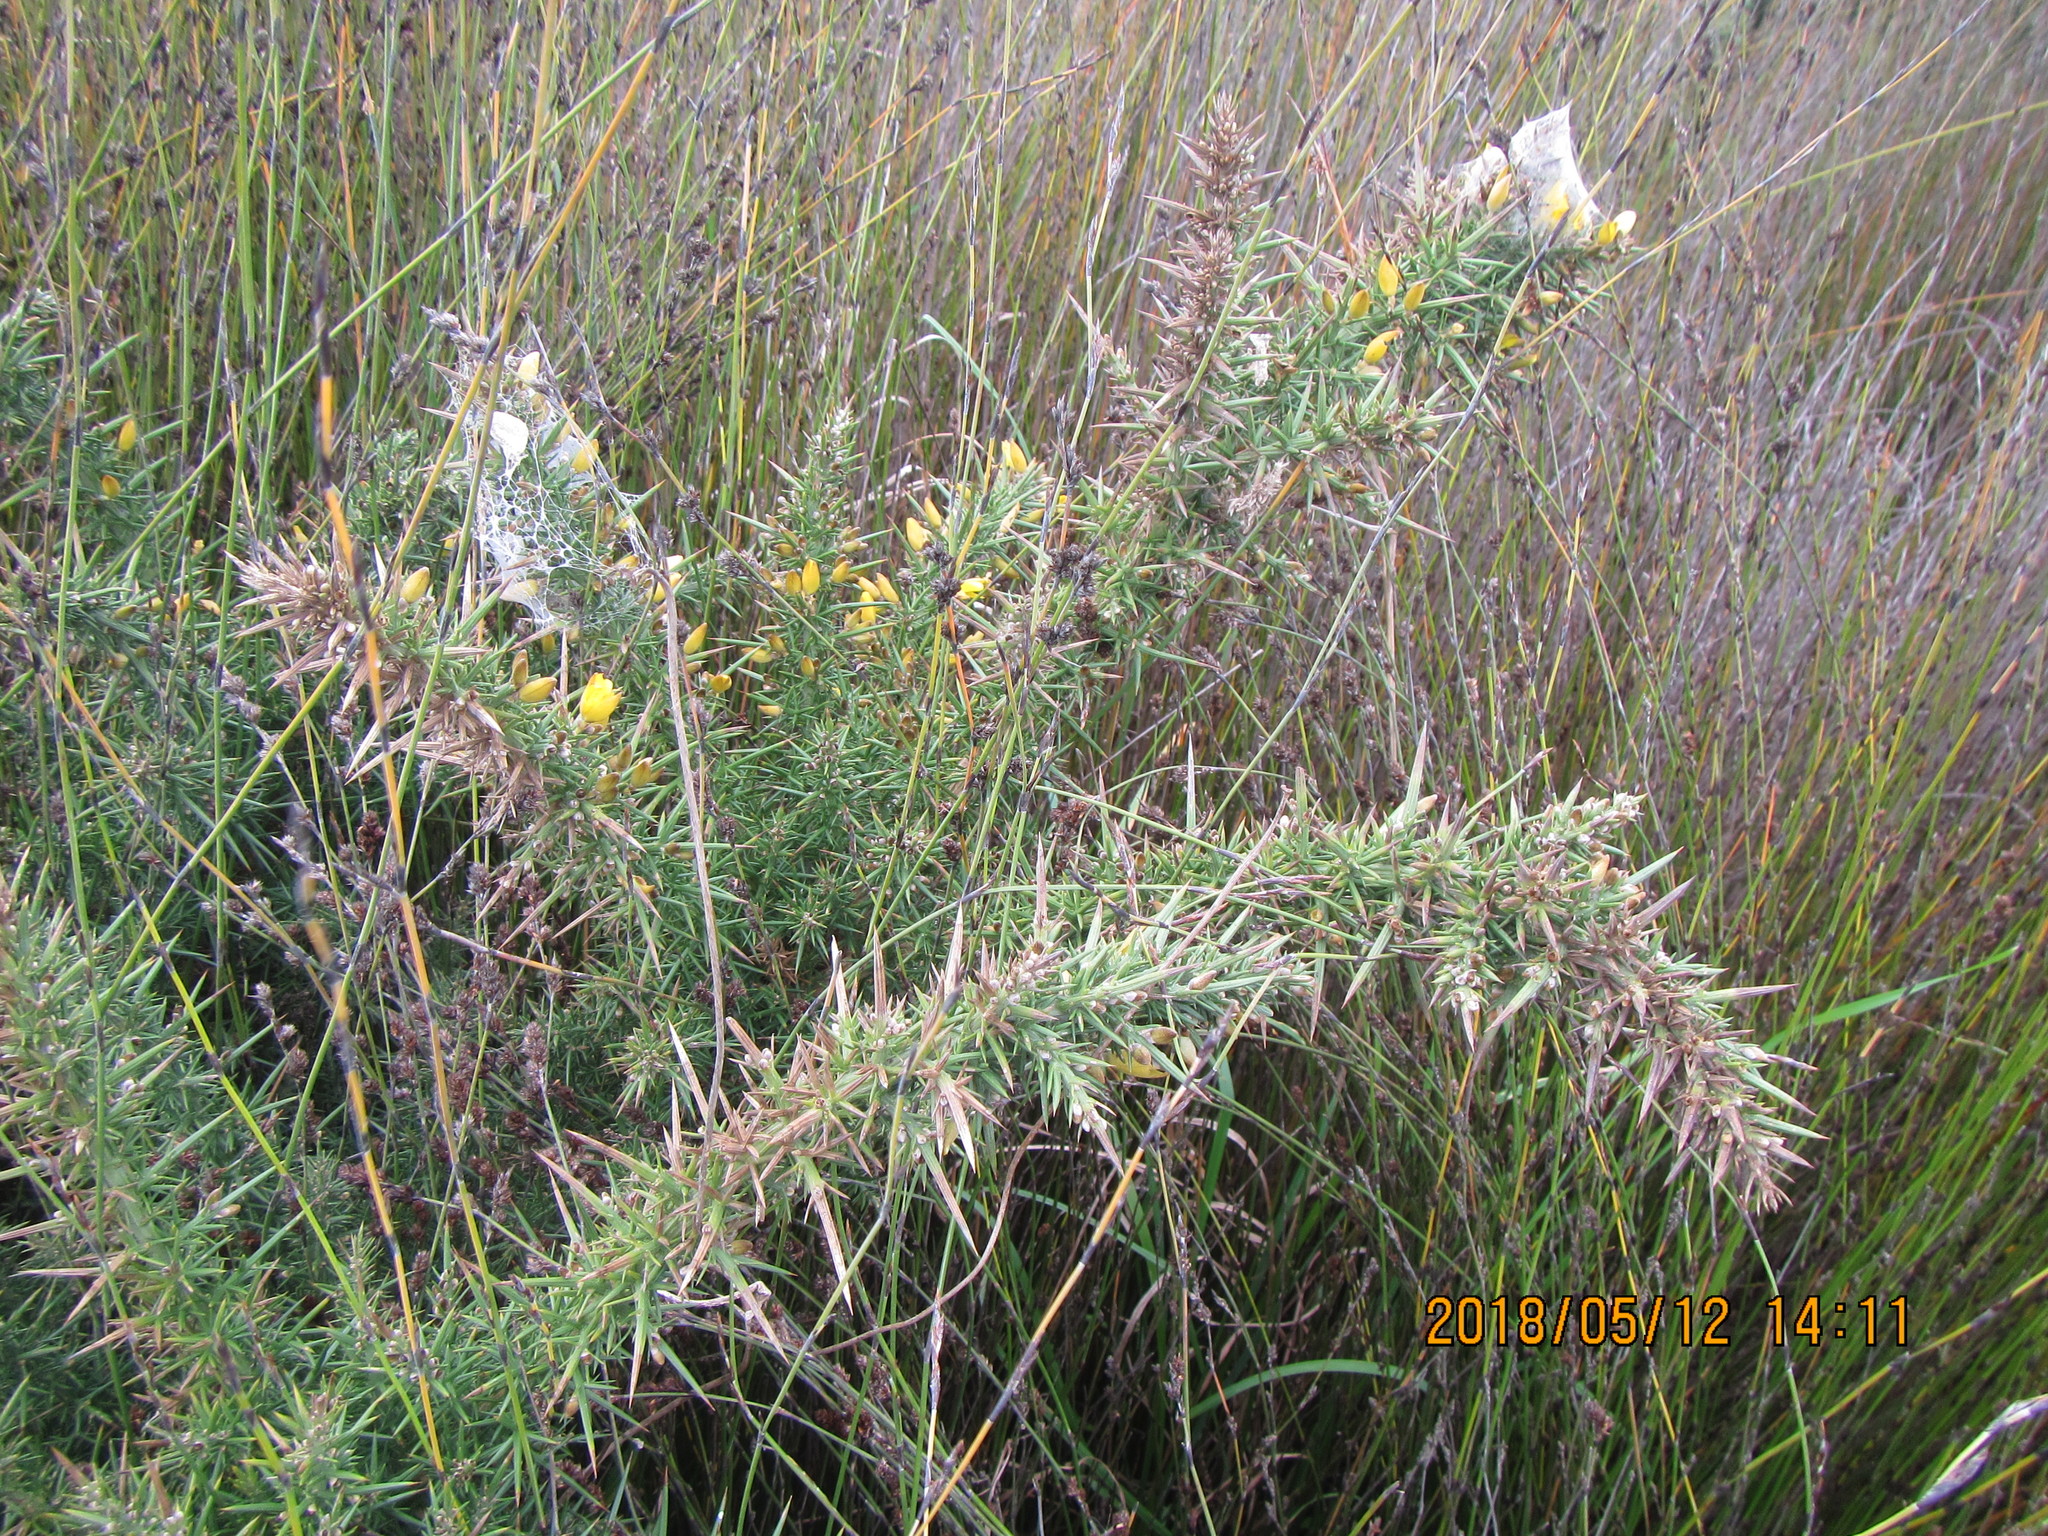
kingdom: Plantae
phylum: Tracheophyta
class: Magnoliopsida
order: Fabales
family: Fabaceae
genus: Ulex
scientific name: Ulex europaeus
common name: Common gorse
